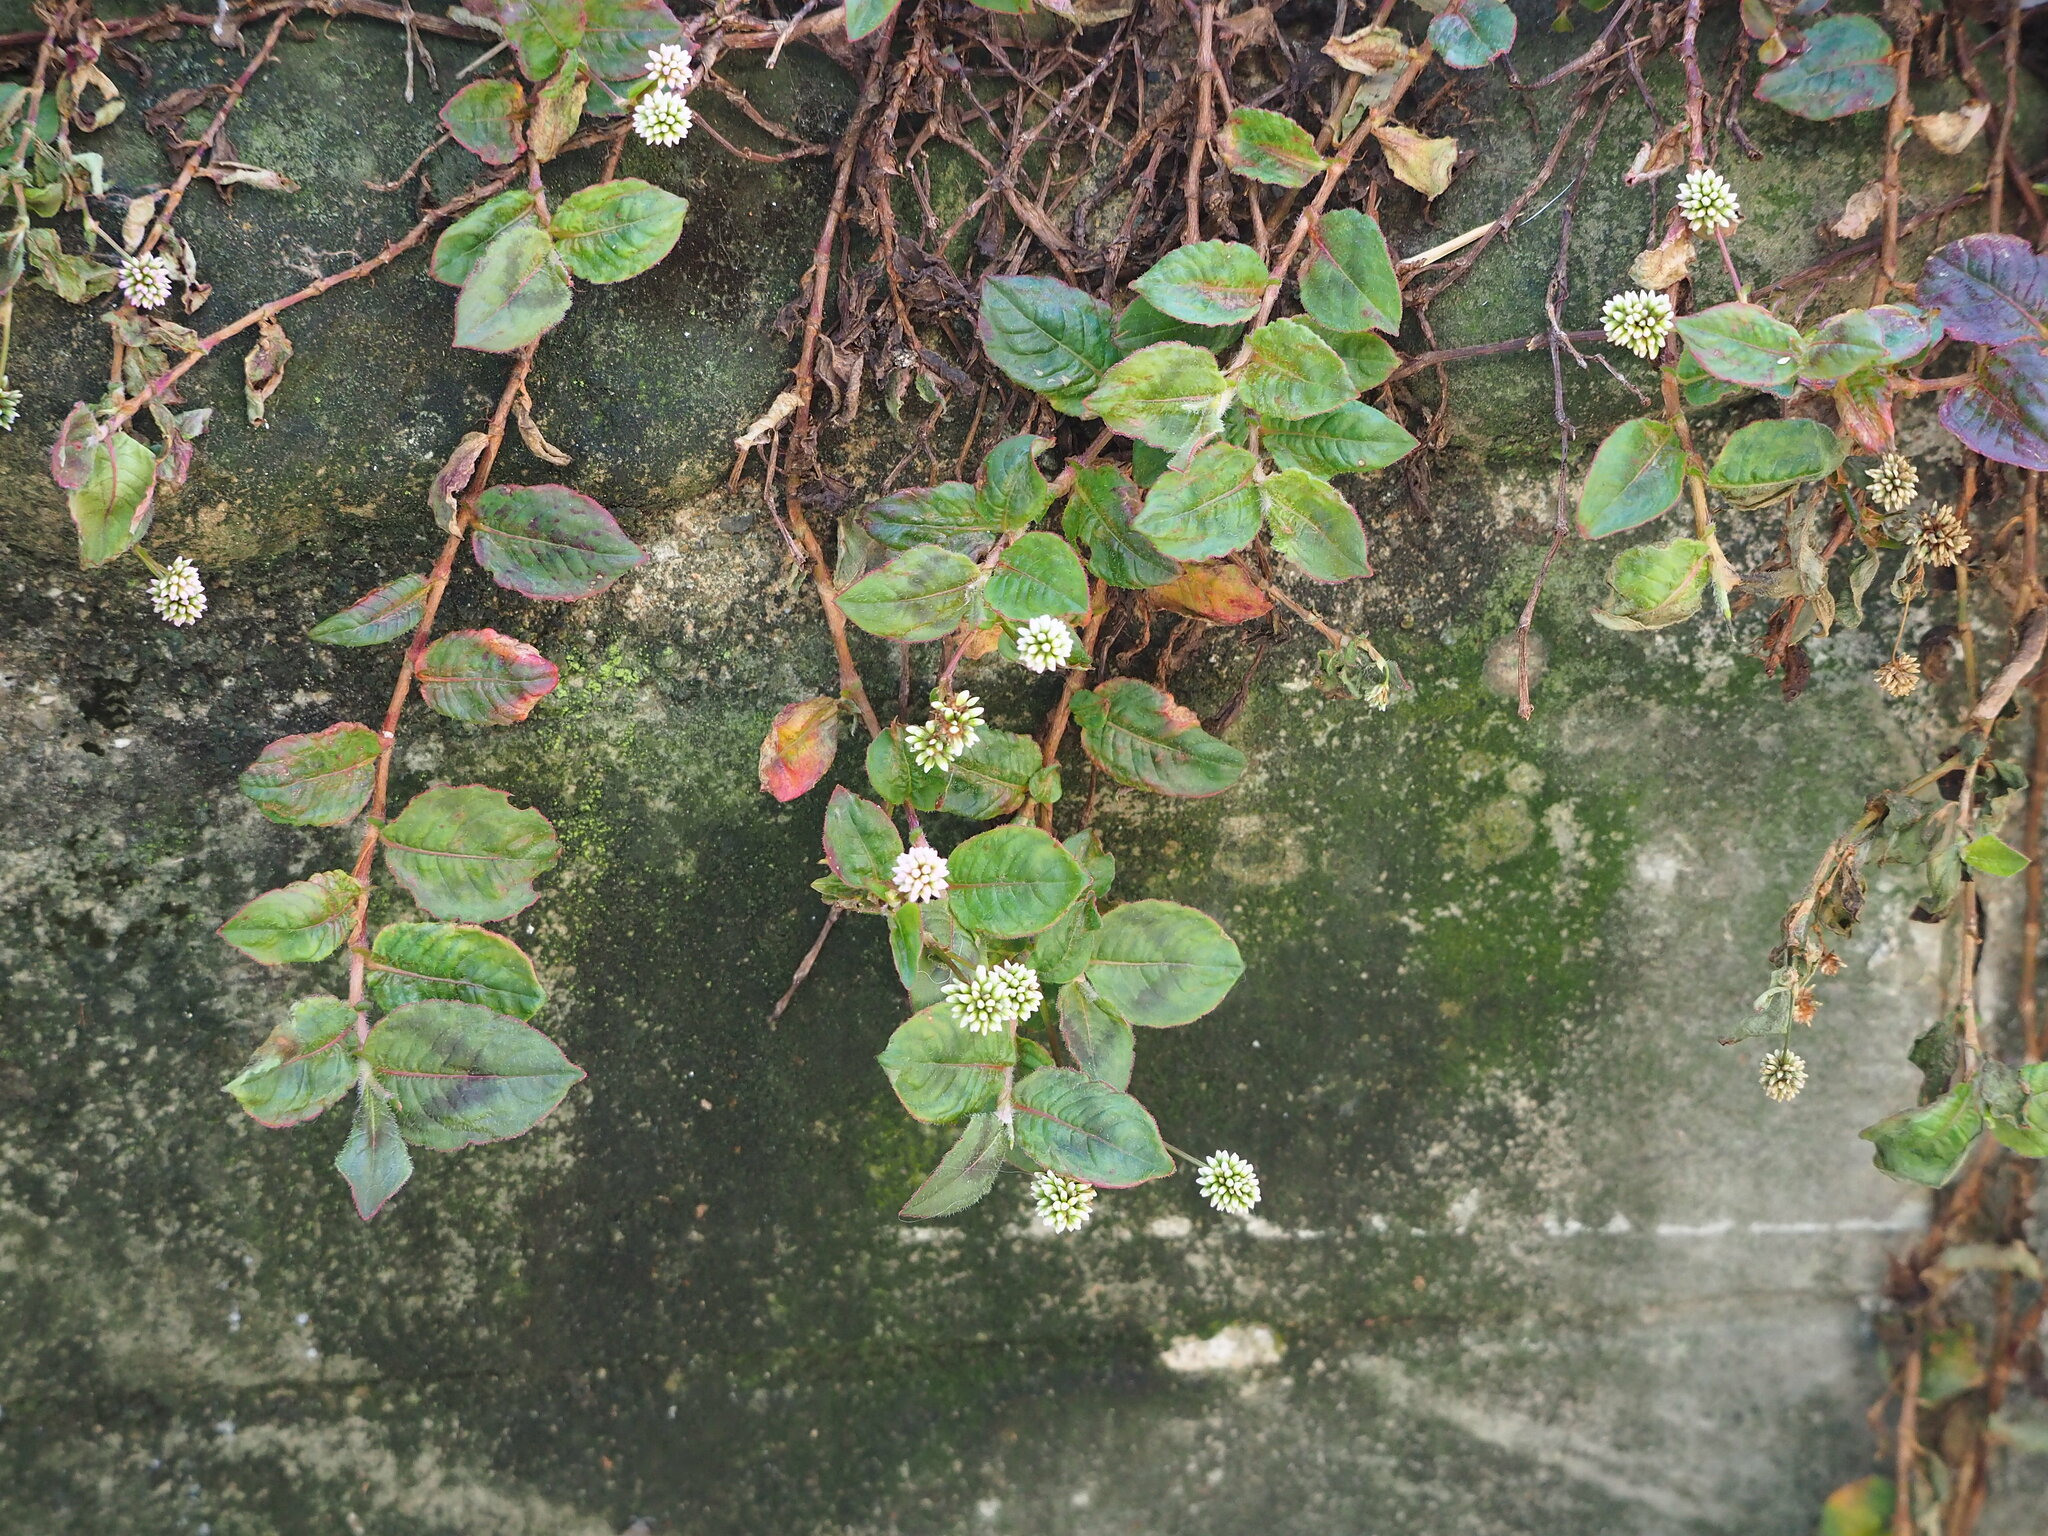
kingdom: Plantae
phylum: Tracheophyta
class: Magnoliopsida
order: Caryophyllales
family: Polygonaceae
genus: Persicaria
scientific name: Persicaria capitata
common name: Pinkhead smartweed
